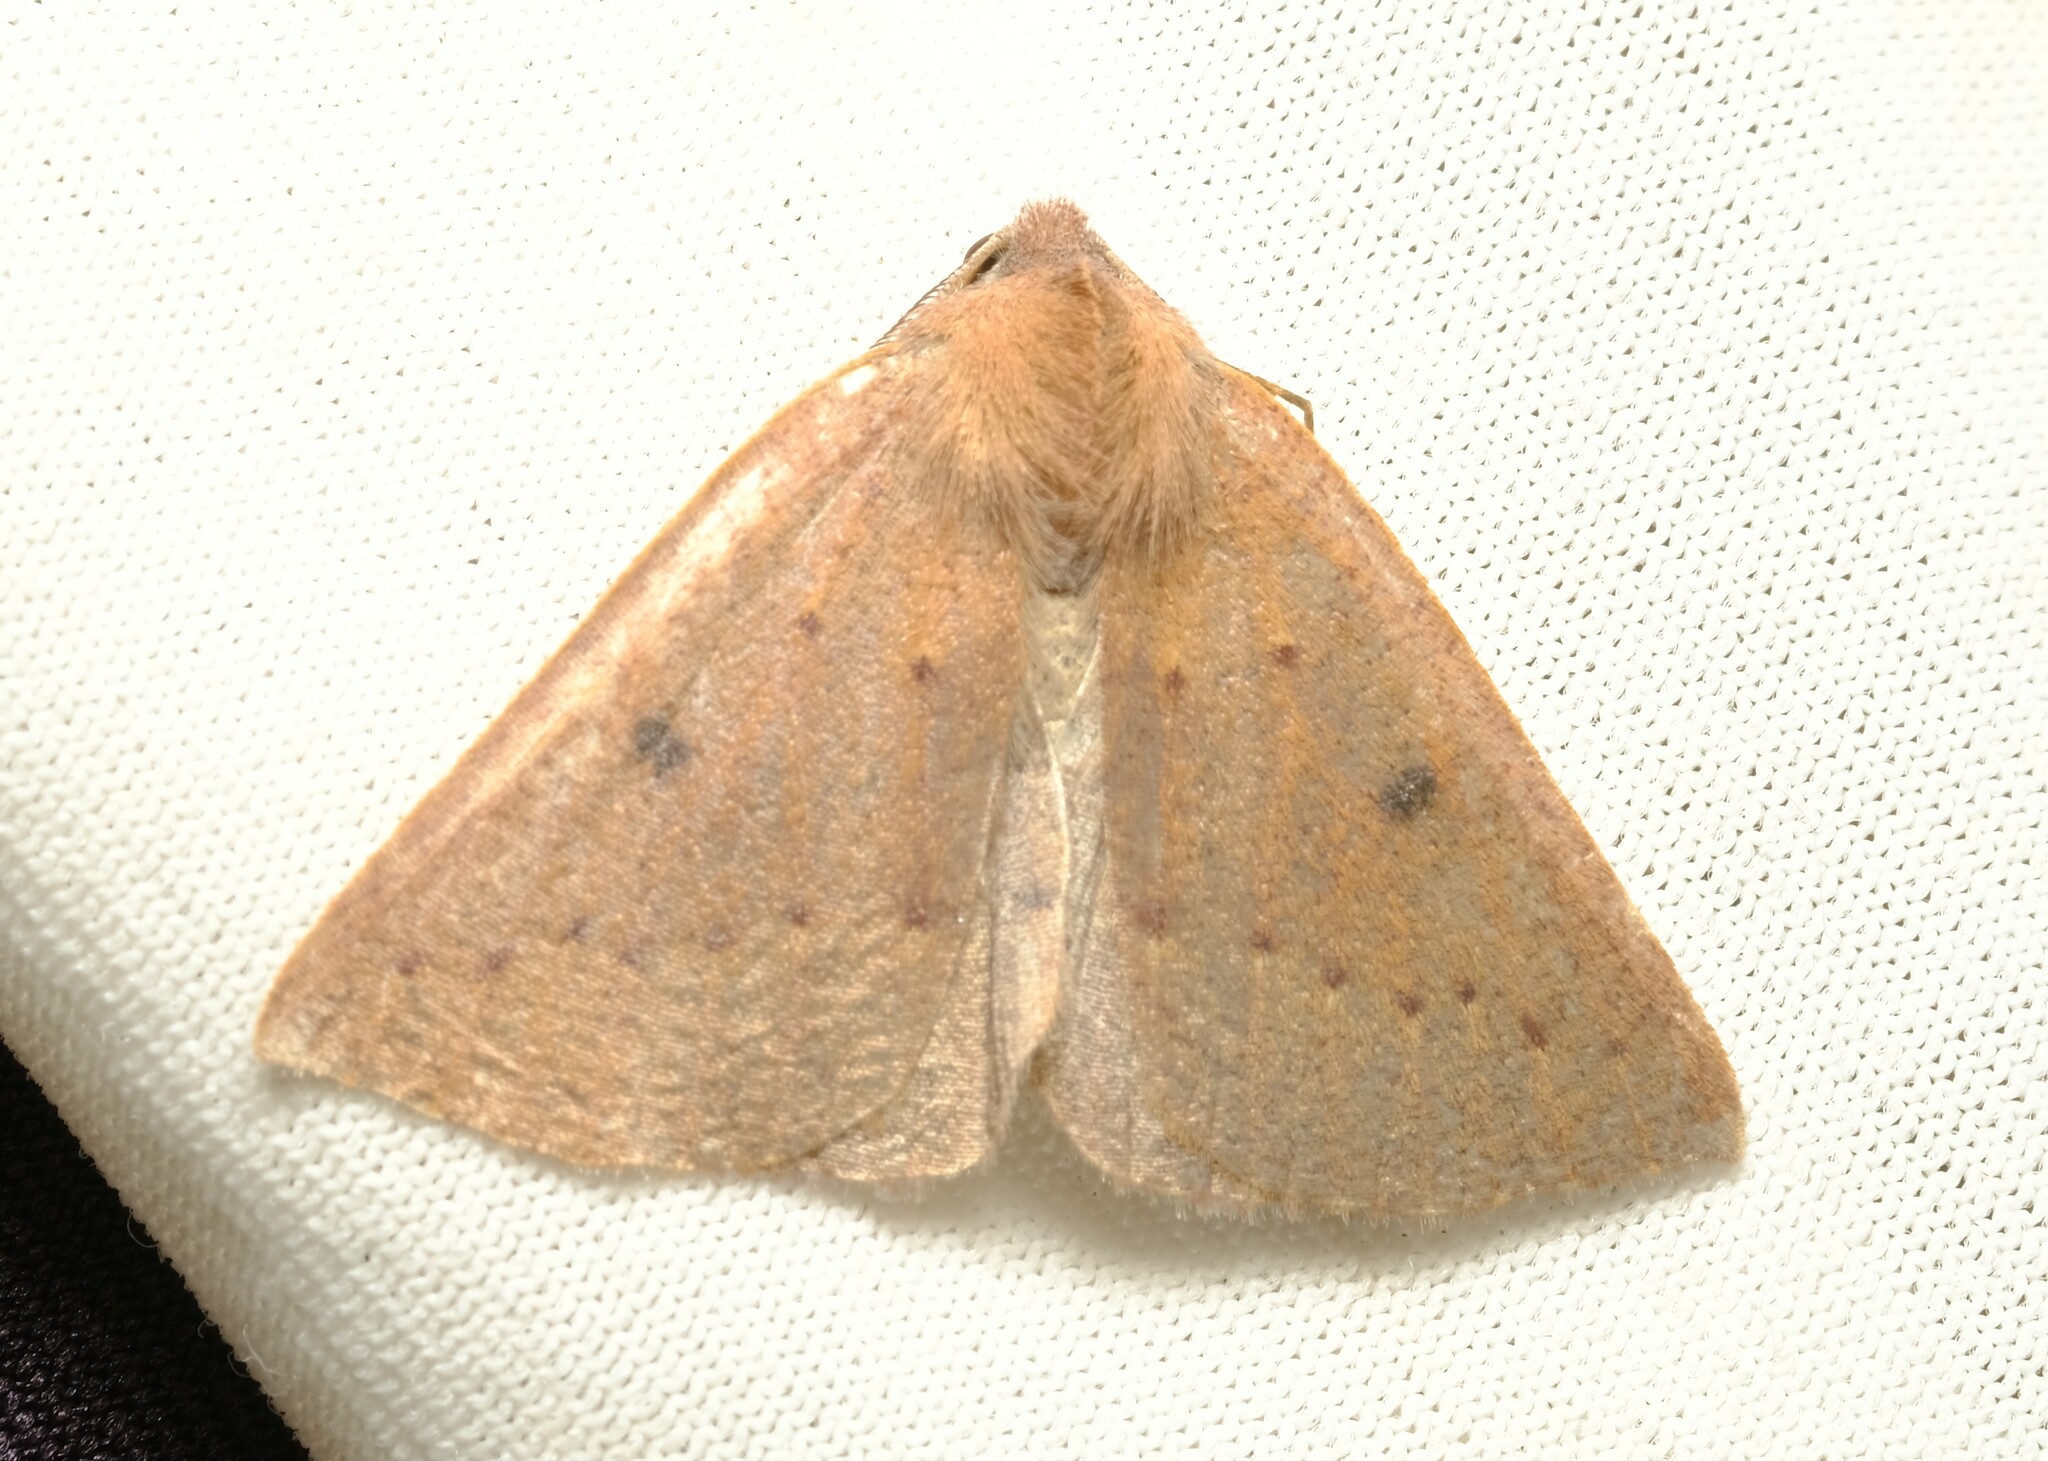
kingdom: Animalia
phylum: Arthropoda
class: Insecta
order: Lepidoptera
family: Geometridae
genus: Androchela
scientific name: Androchela milvaria
